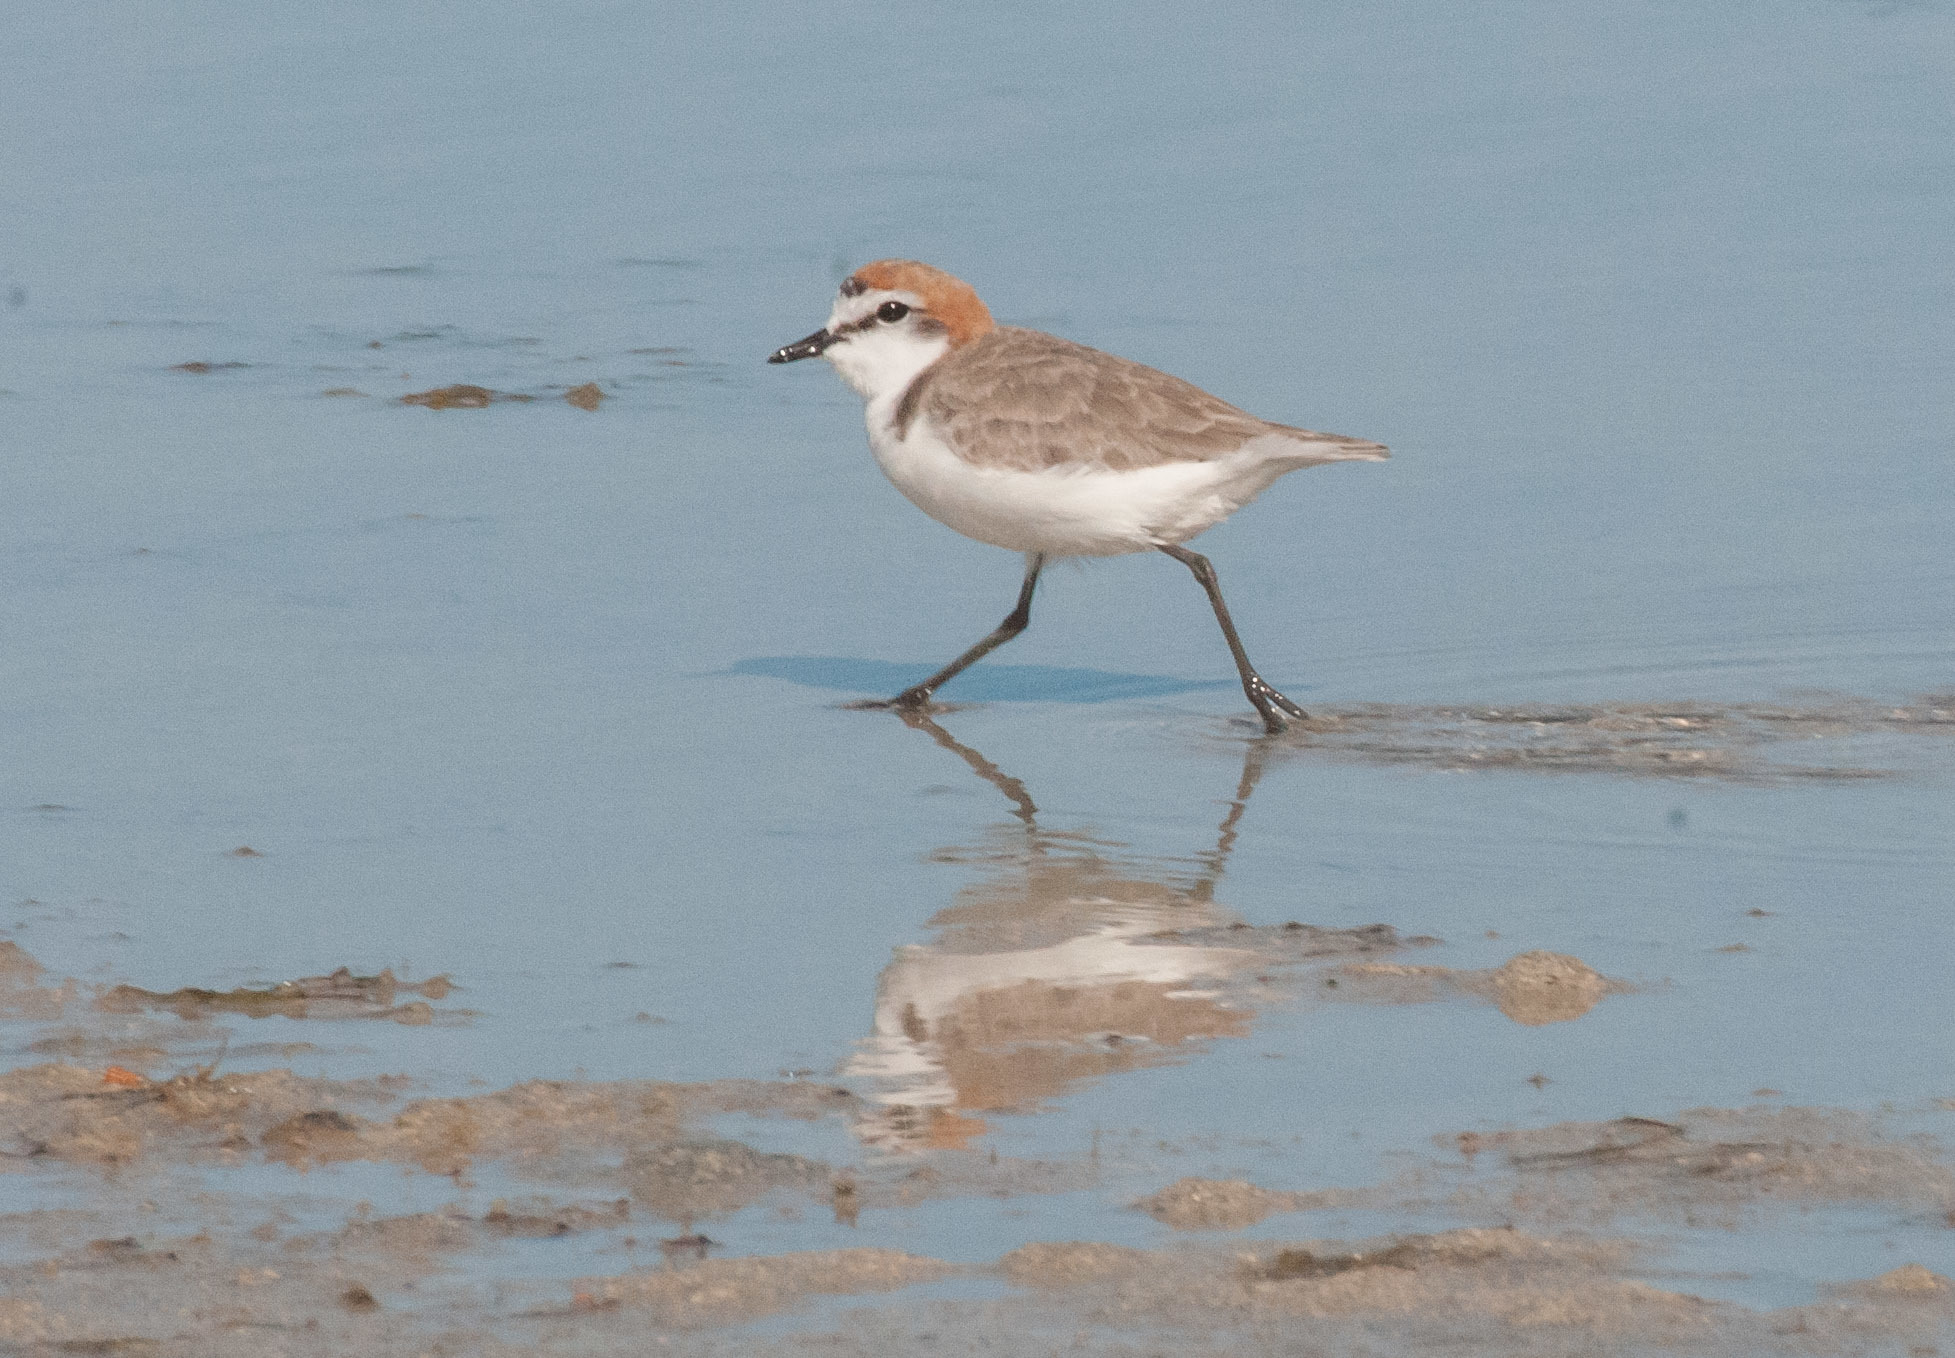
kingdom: Animalia
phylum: Chordata
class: Aves
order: Charadriiformes
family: Charadriidae
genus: Anarhynchus
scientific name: Anarhynchus
